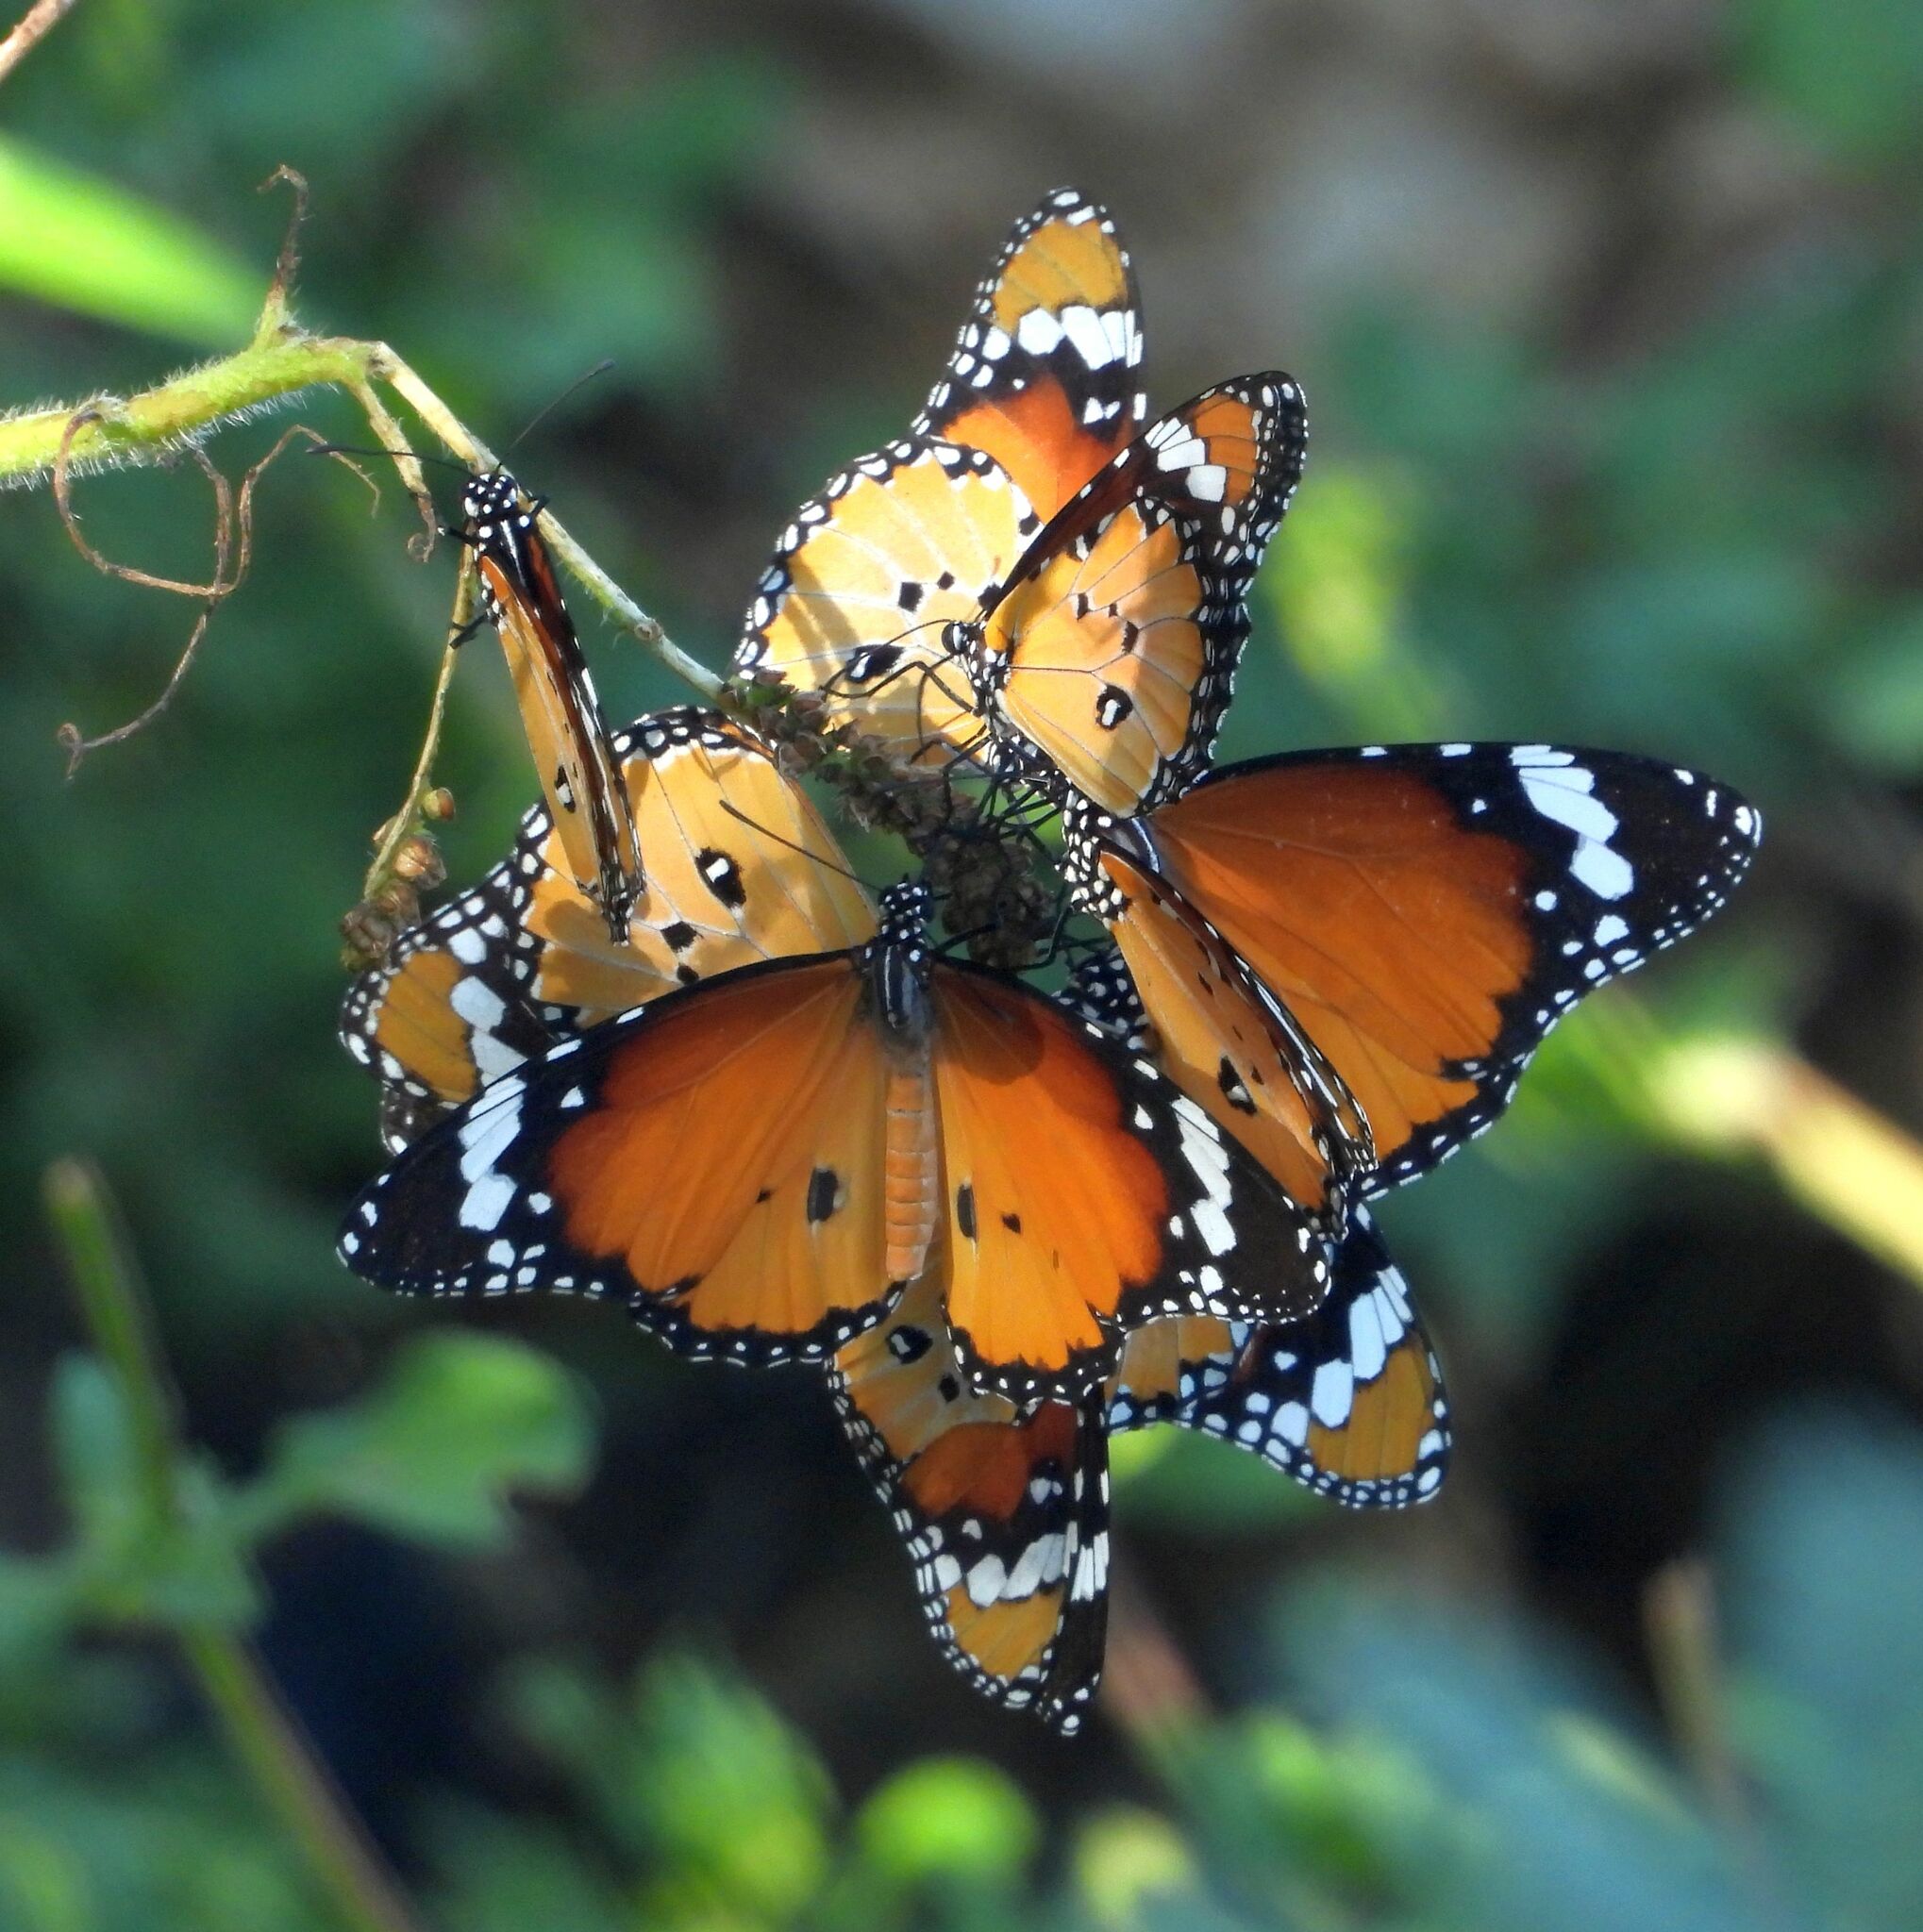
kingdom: Animalia
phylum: Arthropoda
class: Insecta
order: Lepidoptera
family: Nymphalidae
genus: Danaus
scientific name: Danaus chrysippus
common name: Plain tiger
